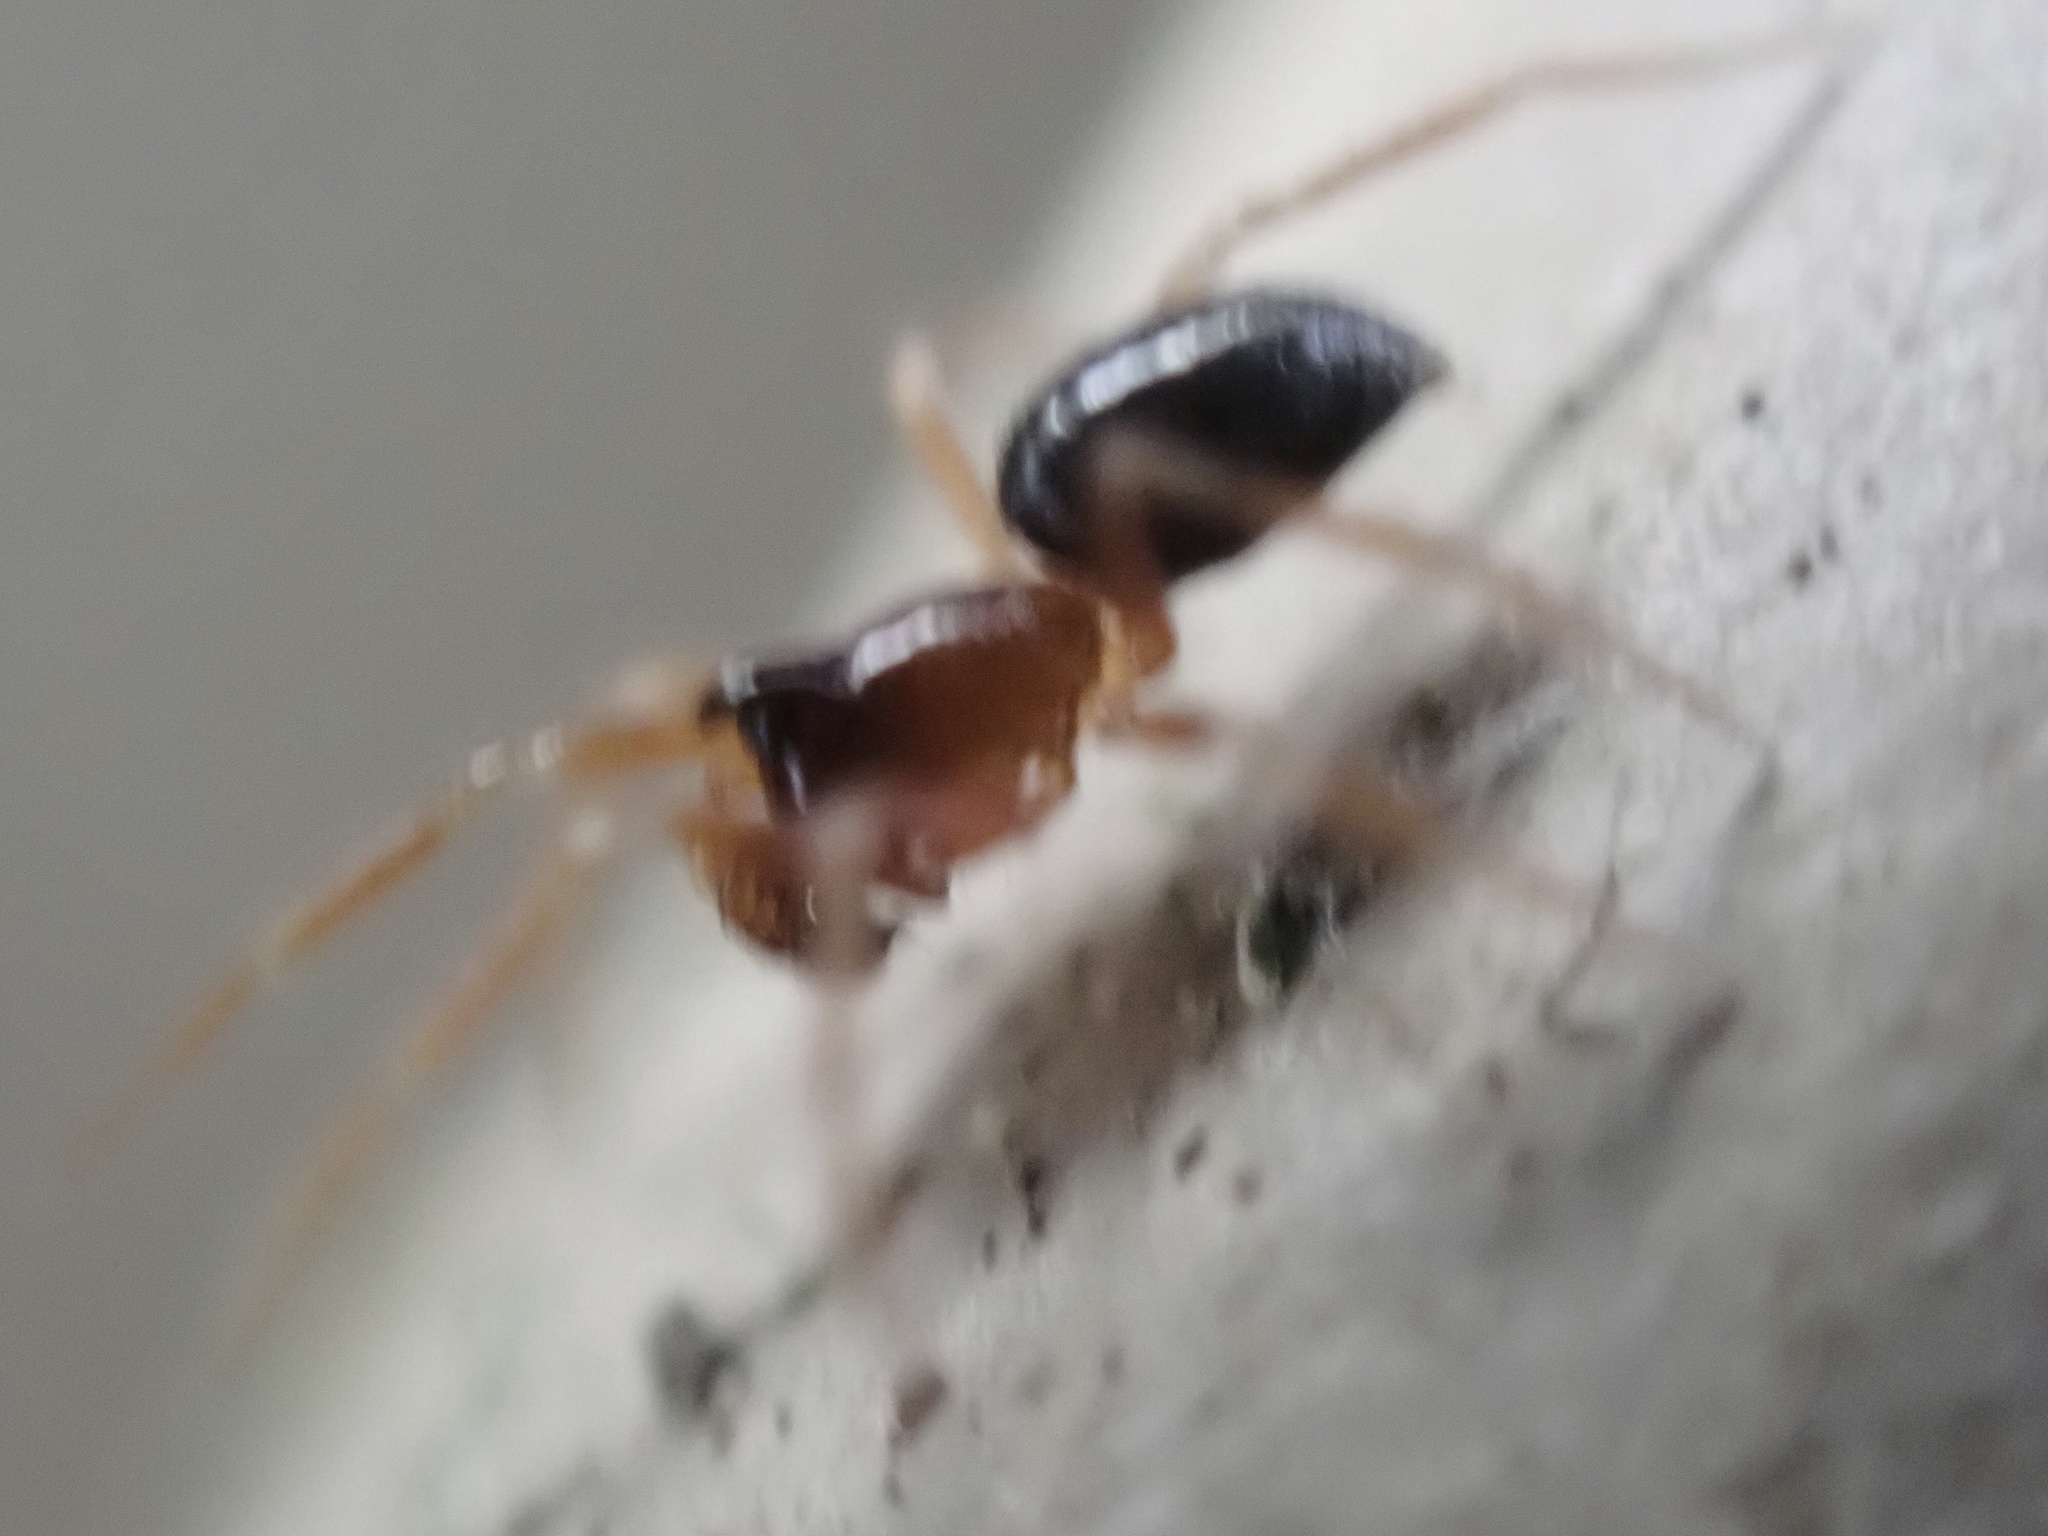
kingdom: Animalia
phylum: Arthropoda
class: Arachnida
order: Araneae
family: Linyphiidae
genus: Origanates
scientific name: Origanates rostratus
